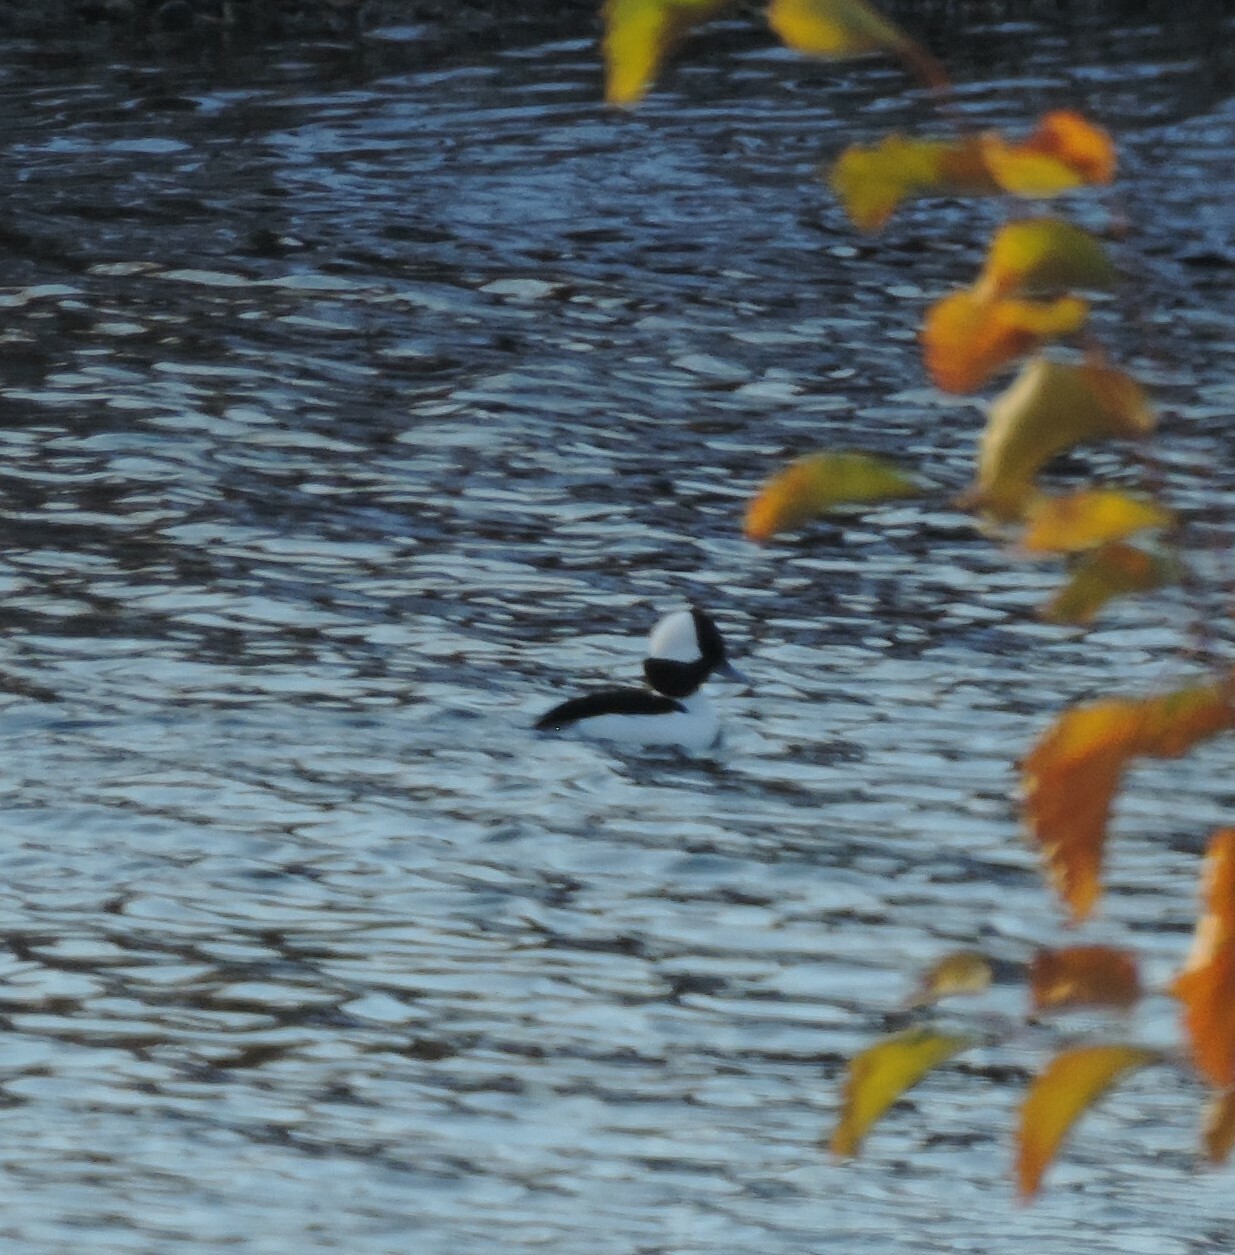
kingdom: Animalia
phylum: Chordata
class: Aves
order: Anseriformes
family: Anatidae
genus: Bucephala
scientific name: Bucephala albeola
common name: Bufflehead
